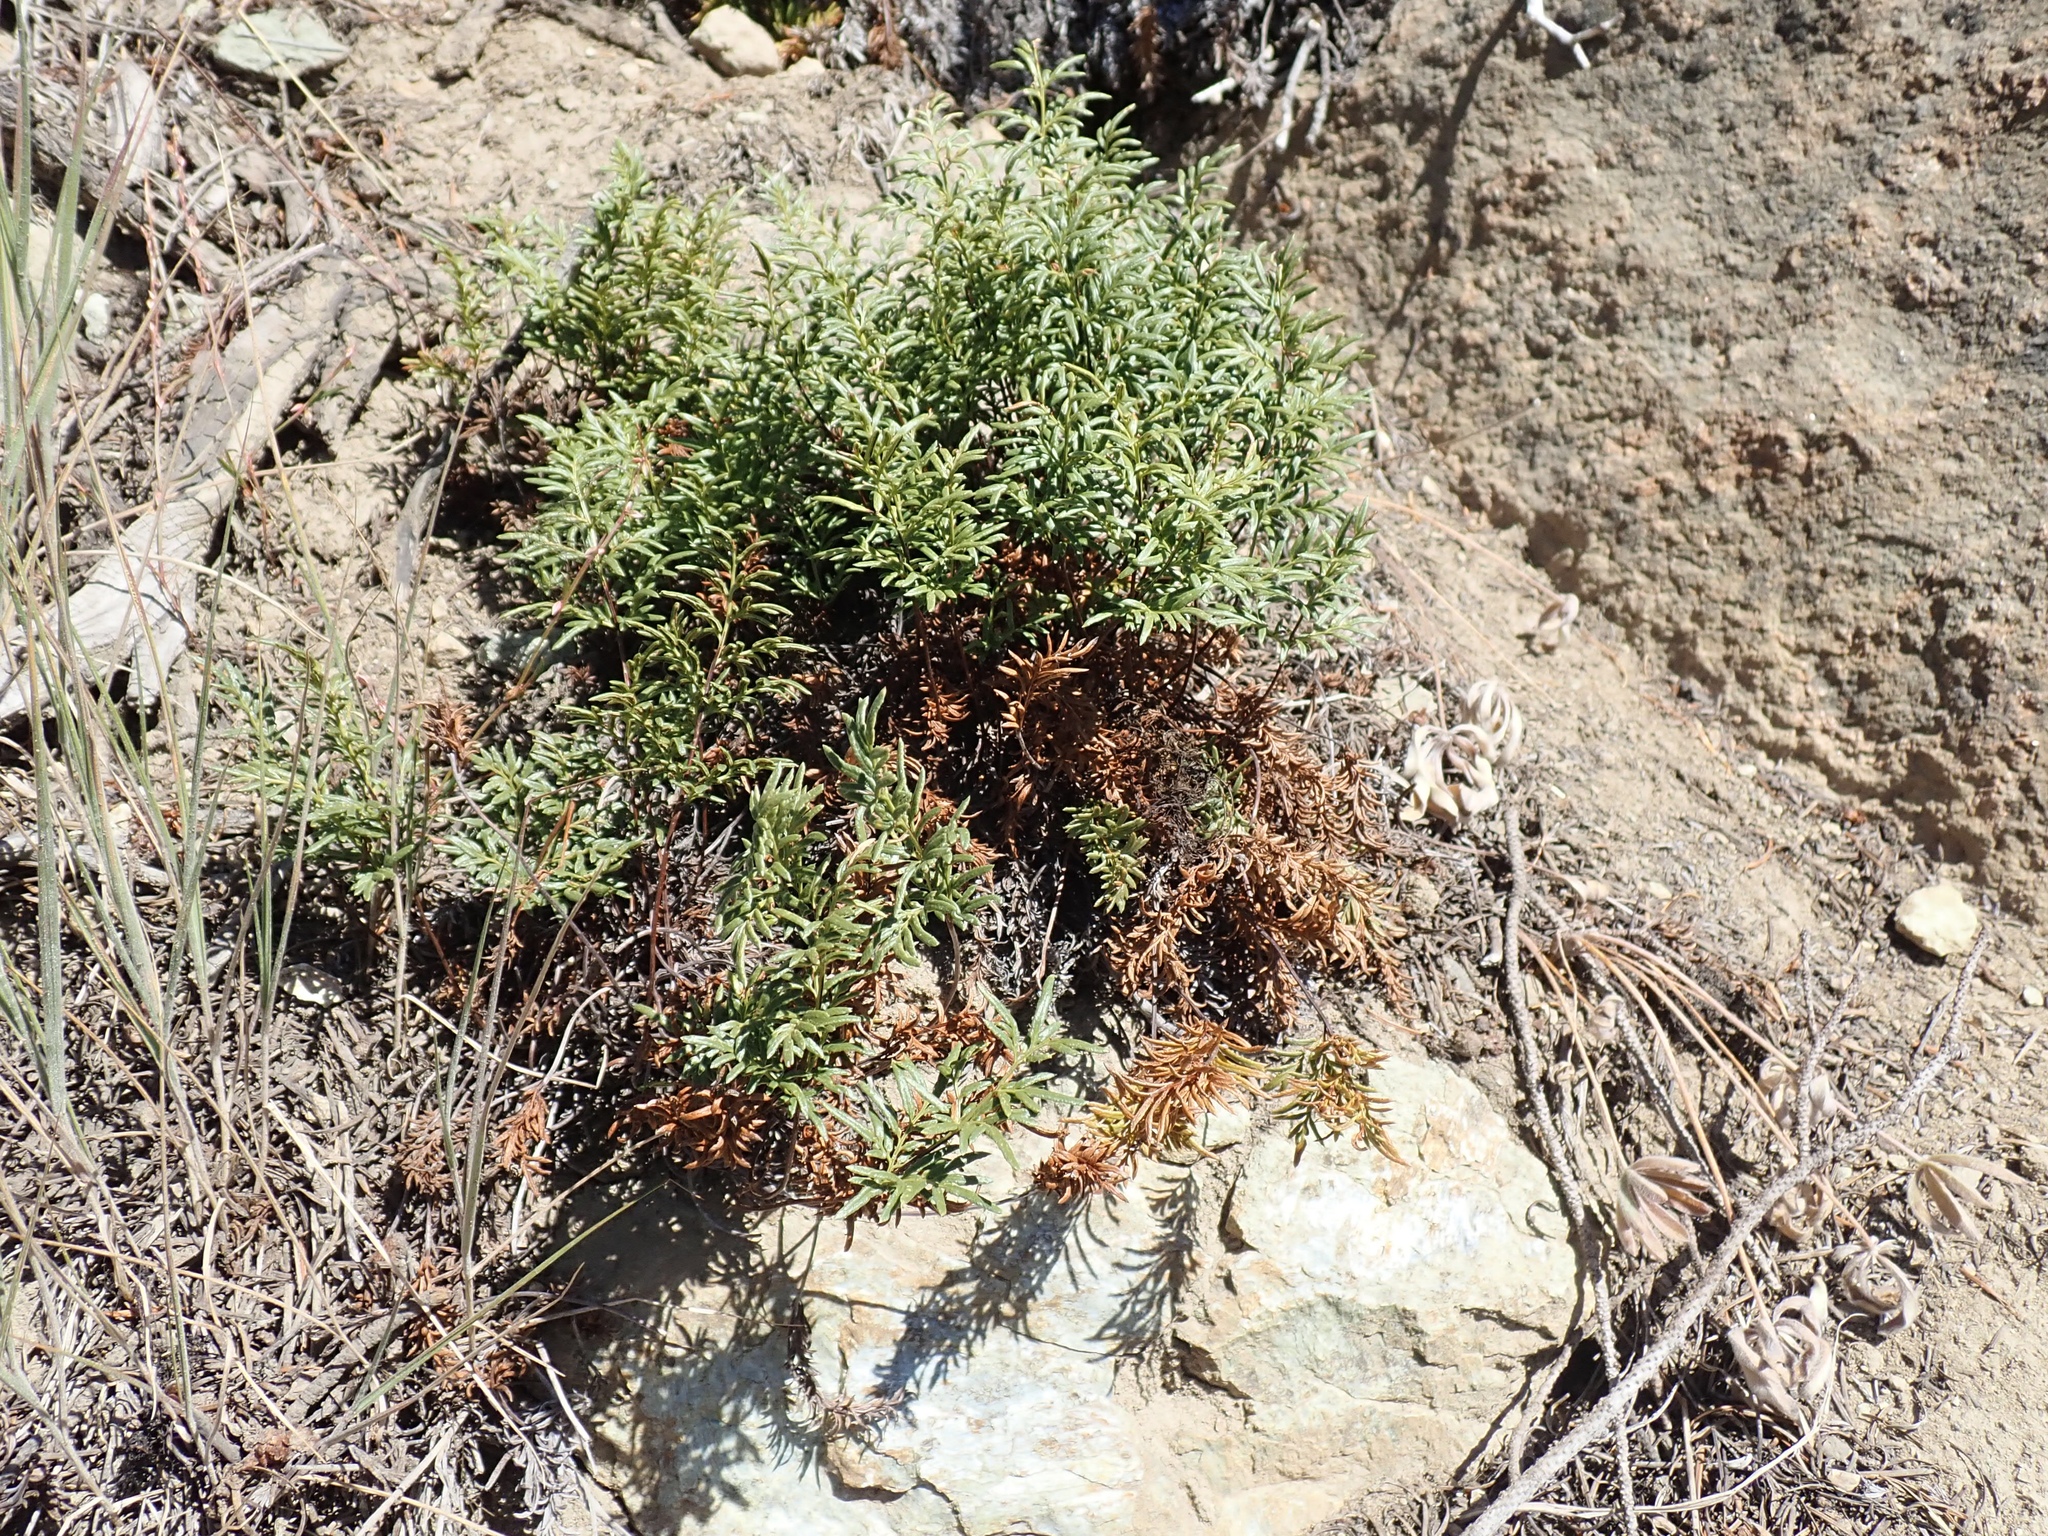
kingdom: Plantae
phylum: Tracheophyta
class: Polypodiopsida
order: Polypodiales
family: Pteridaceae
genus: Aspidotis
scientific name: Aspidotis densa
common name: Indian's dream
